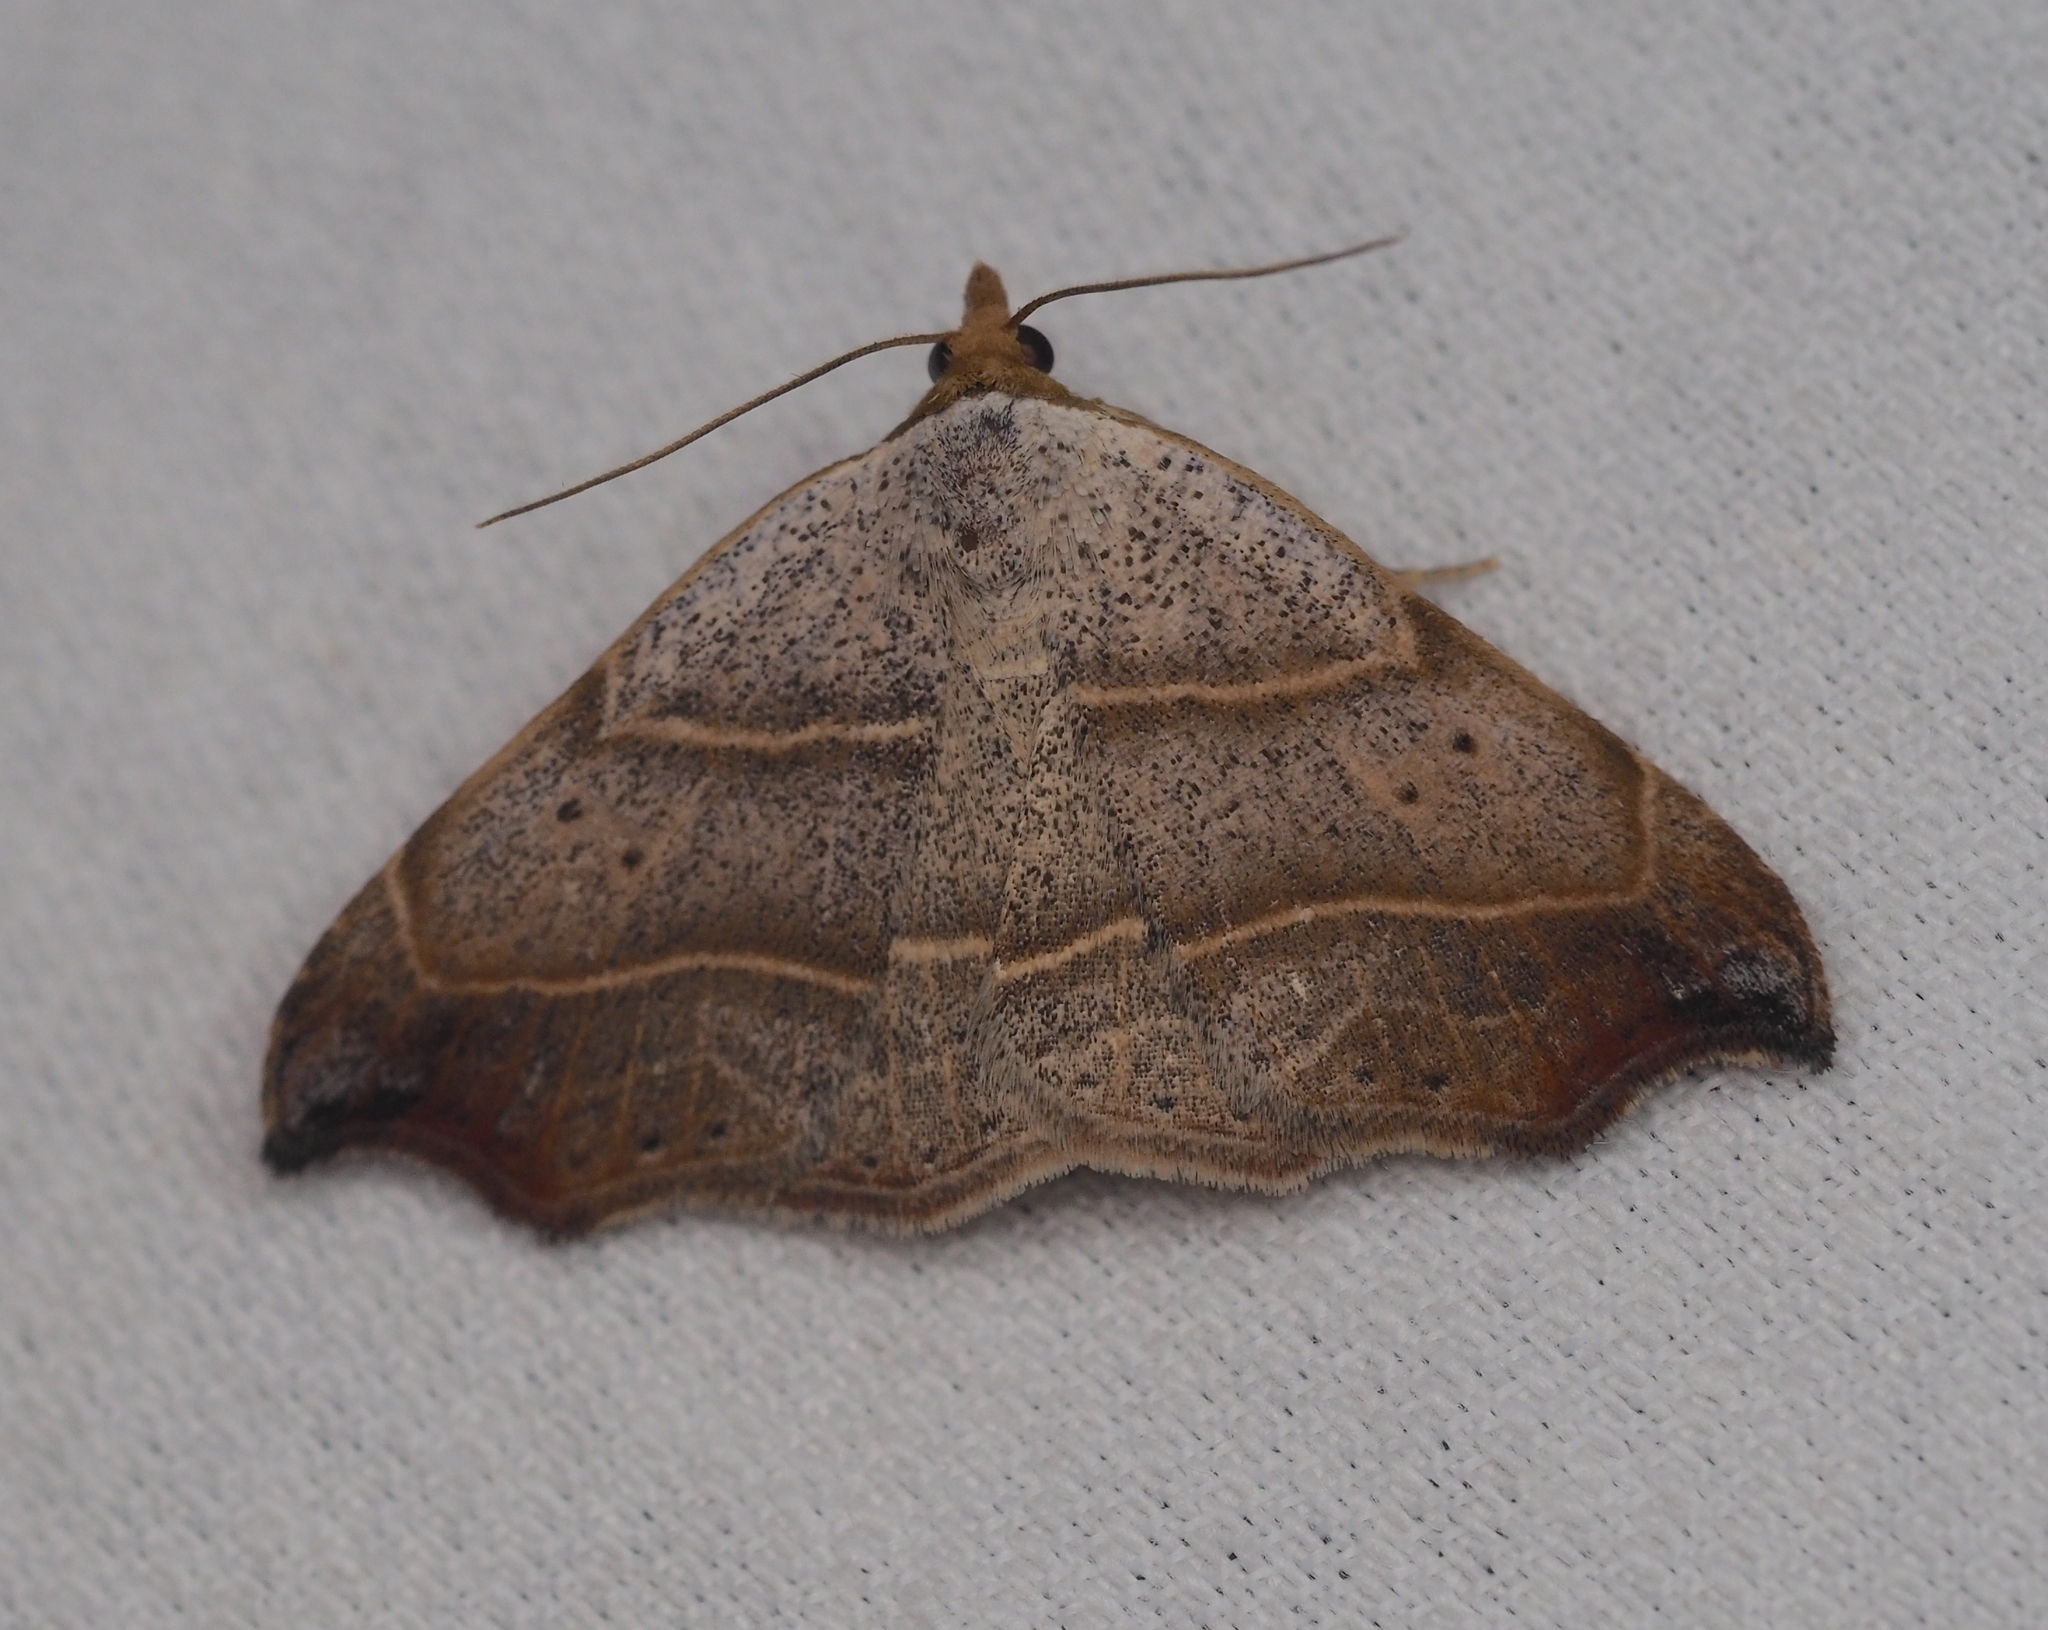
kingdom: Animalia
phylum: Arthropoda
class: Insecta
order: Lepidoptera
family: Erebidae
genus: Laspeyria
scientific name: Laspeyria flexula
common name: Beautiful hook-tip
